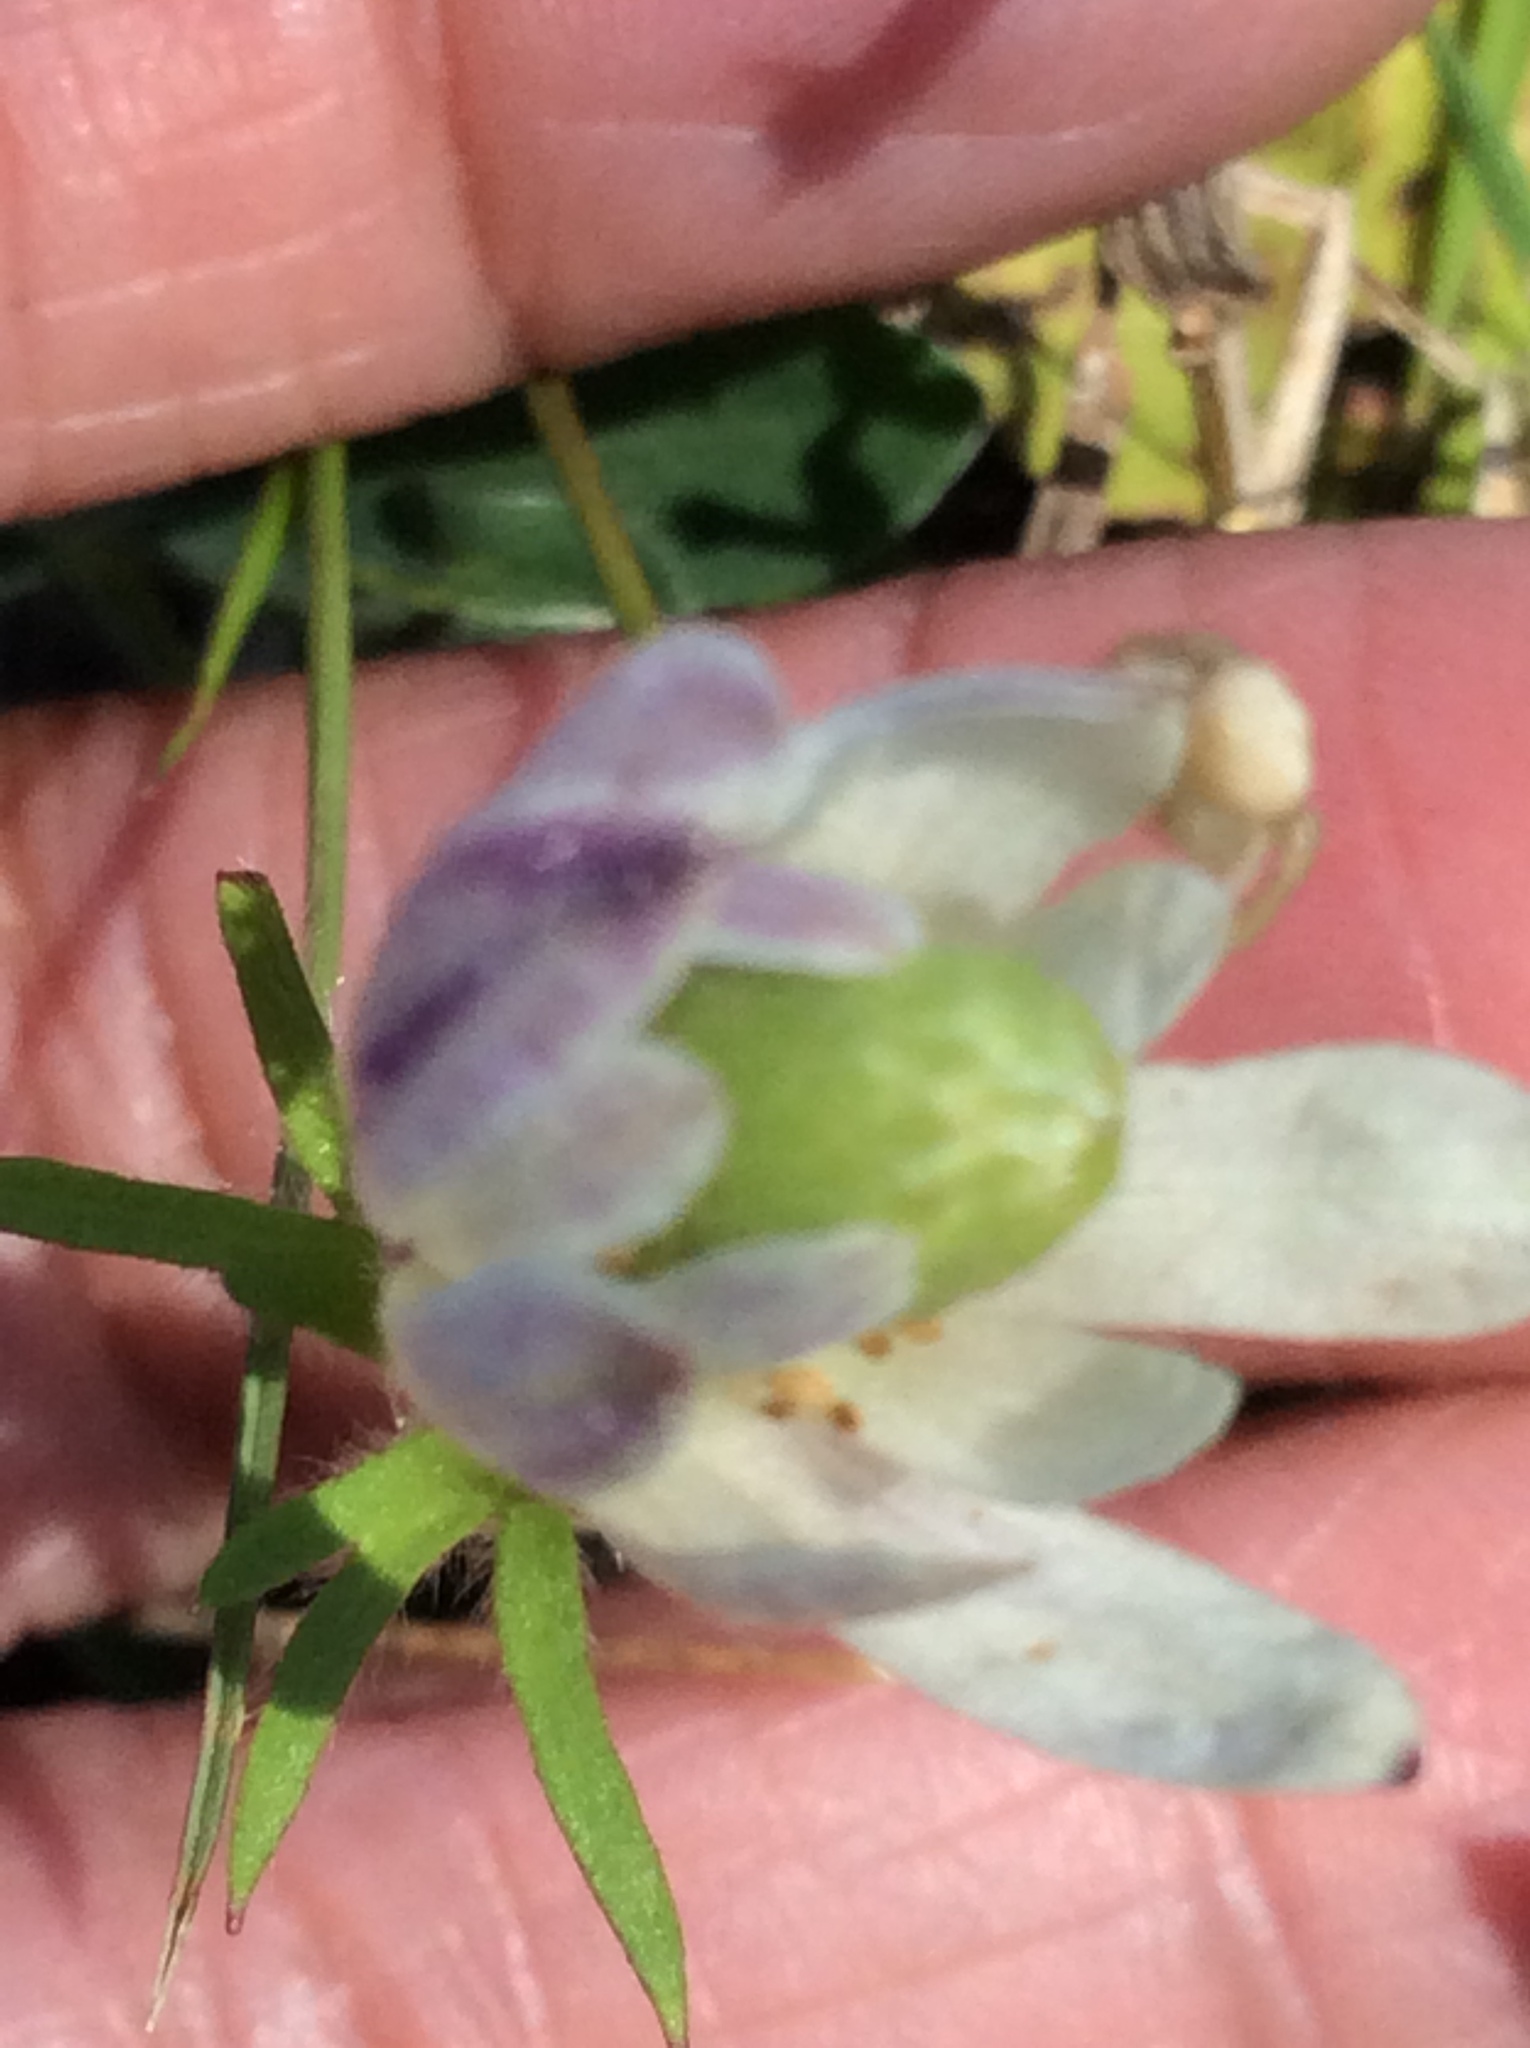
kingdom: Plantae
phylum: Tracheophyta
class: Magnoliopsida
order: Ranunculales
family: Ranunculaceae
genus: Anemone
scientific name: Anemone berlandieri
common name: Ten-petal anemone
